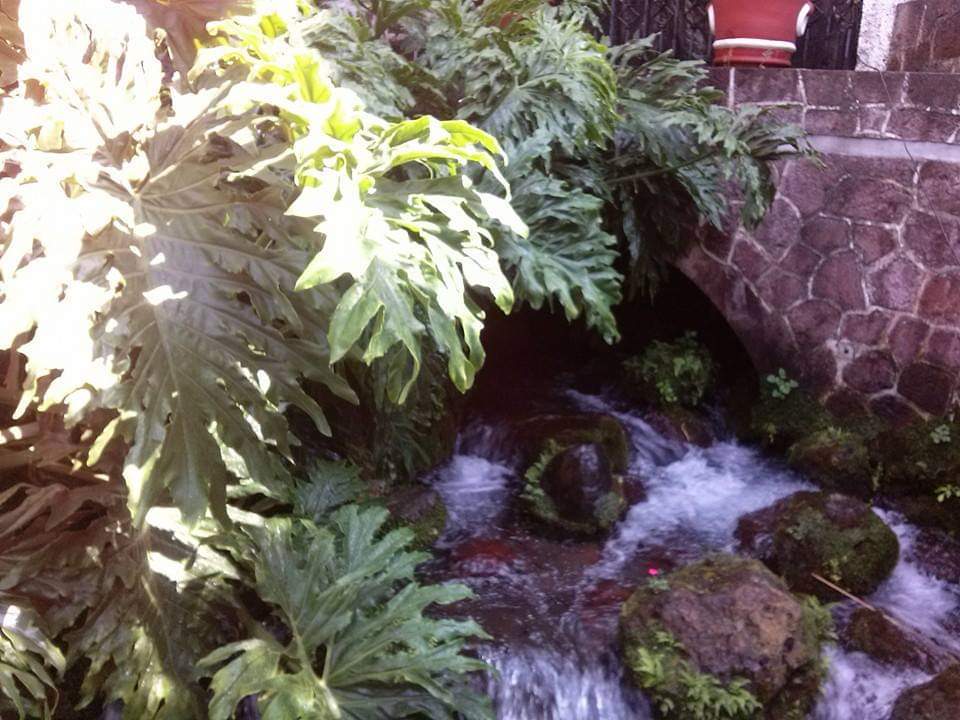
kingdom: Plantae
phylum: Tracheophyta
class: Liliopsida
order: Alismatales
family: Araceae
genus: Thaumatophyllum
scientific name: Thaumatophyllum bipinnatifidum
